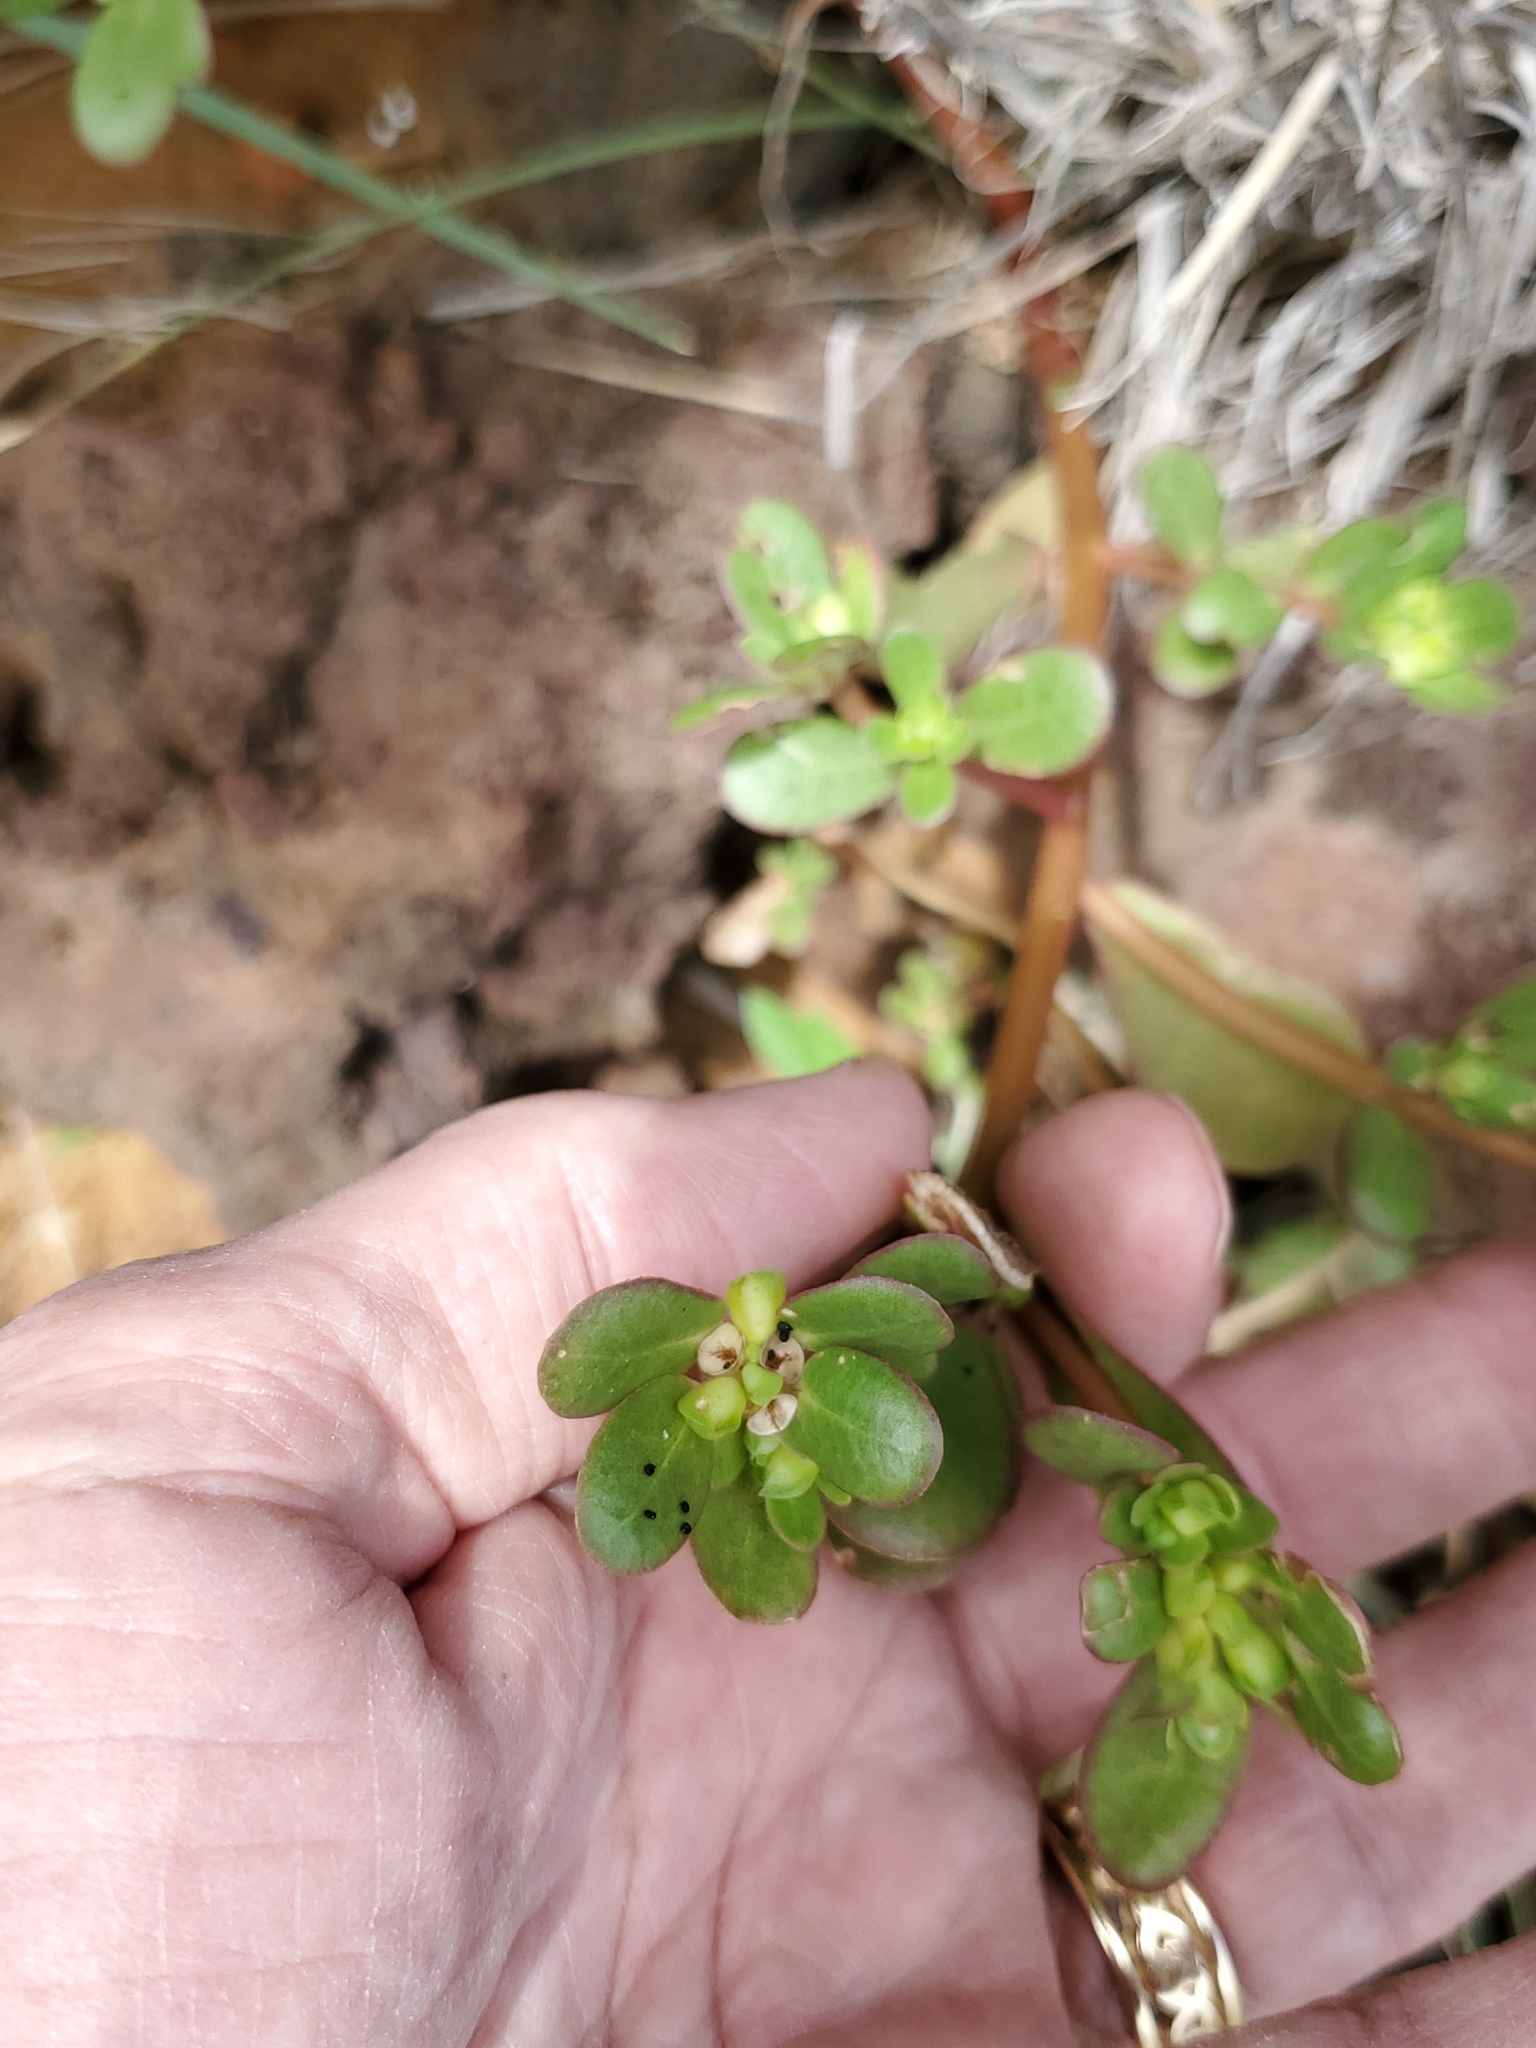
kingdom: Plantae
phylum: Tracheophyta
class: Magnoliopsida
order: Caryophyllales
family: Portulacaceae
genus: Portulaca
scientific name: Portulaca oleracea
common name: Common purslane
